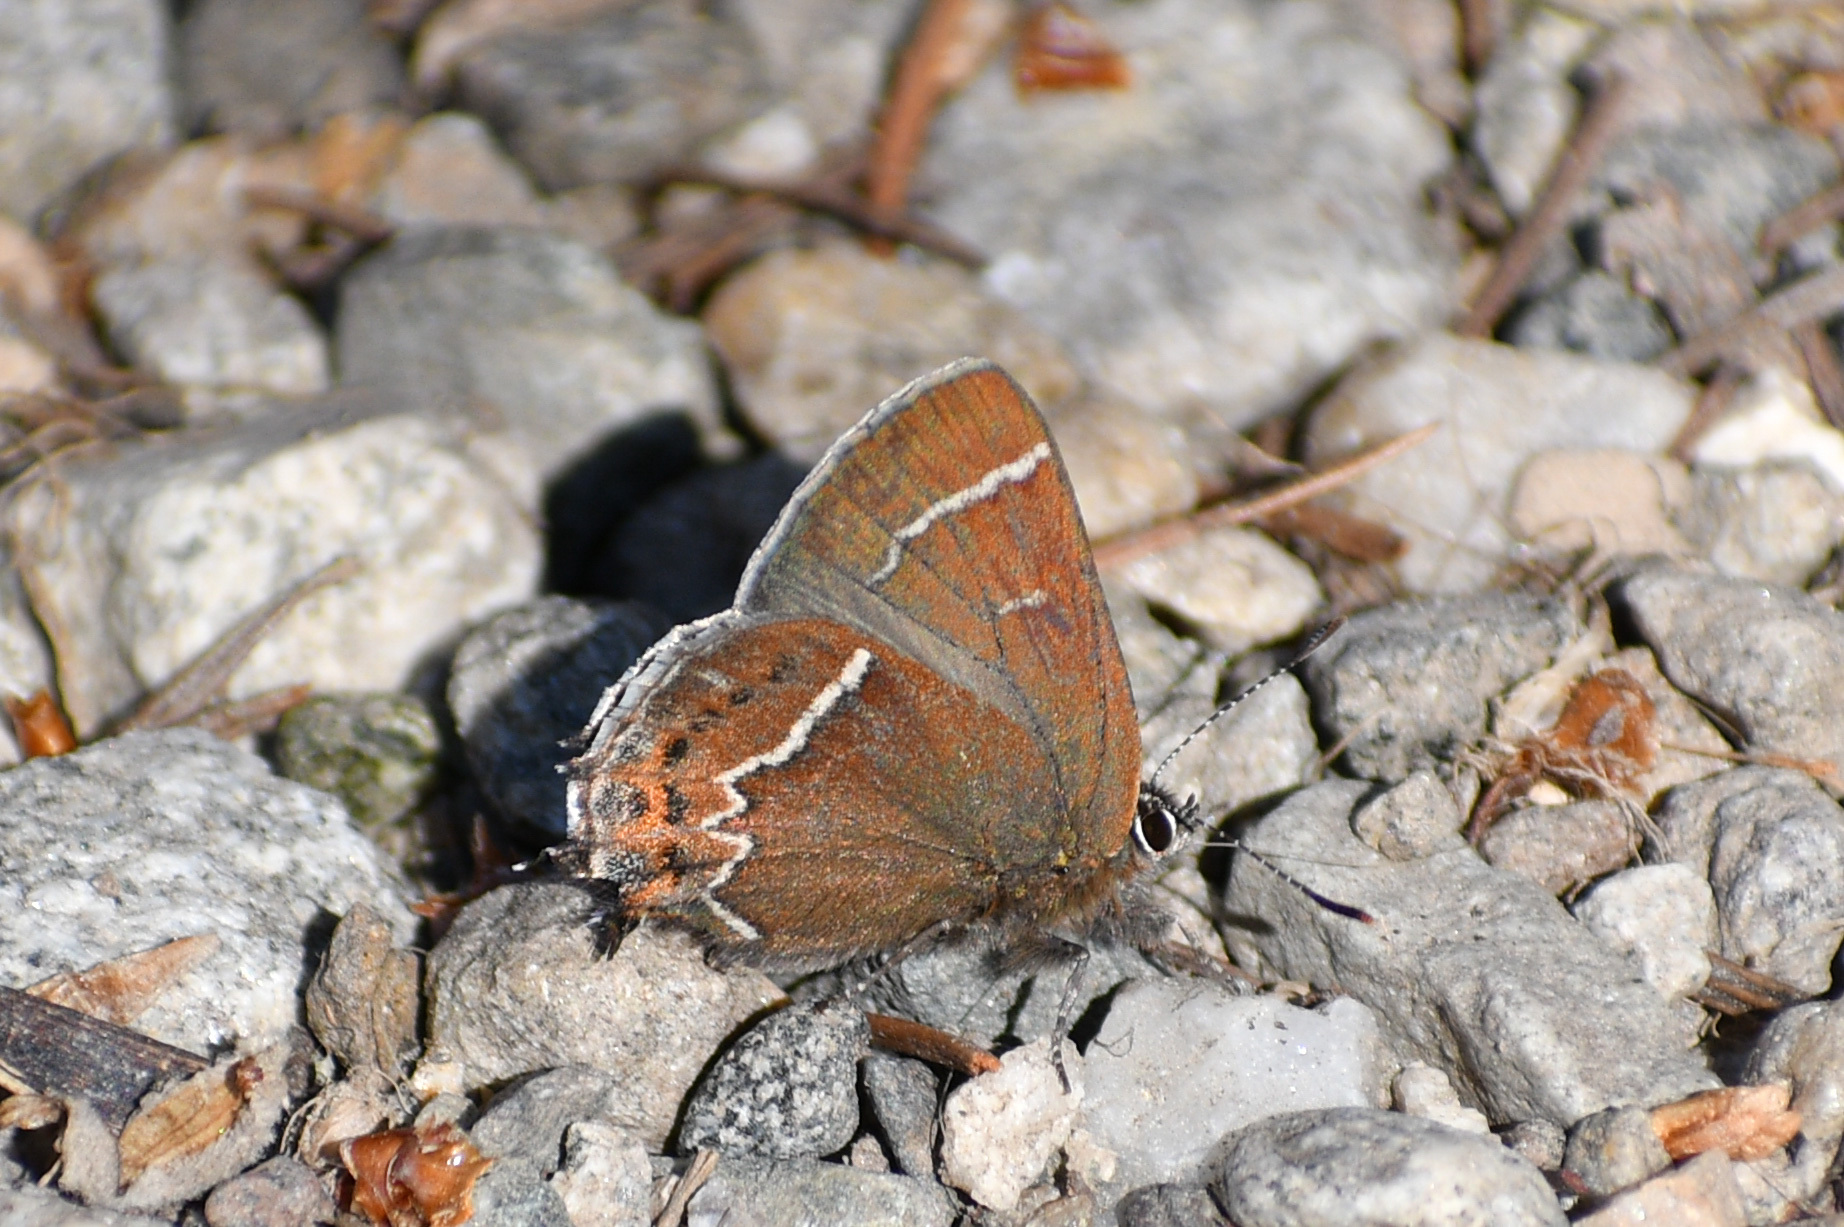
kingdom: Animalia
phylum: Arthropoda
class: Insecta
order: Lepidoptera
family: Lycaenidae
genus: Mitoura
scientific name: Mitoura spinetorum
